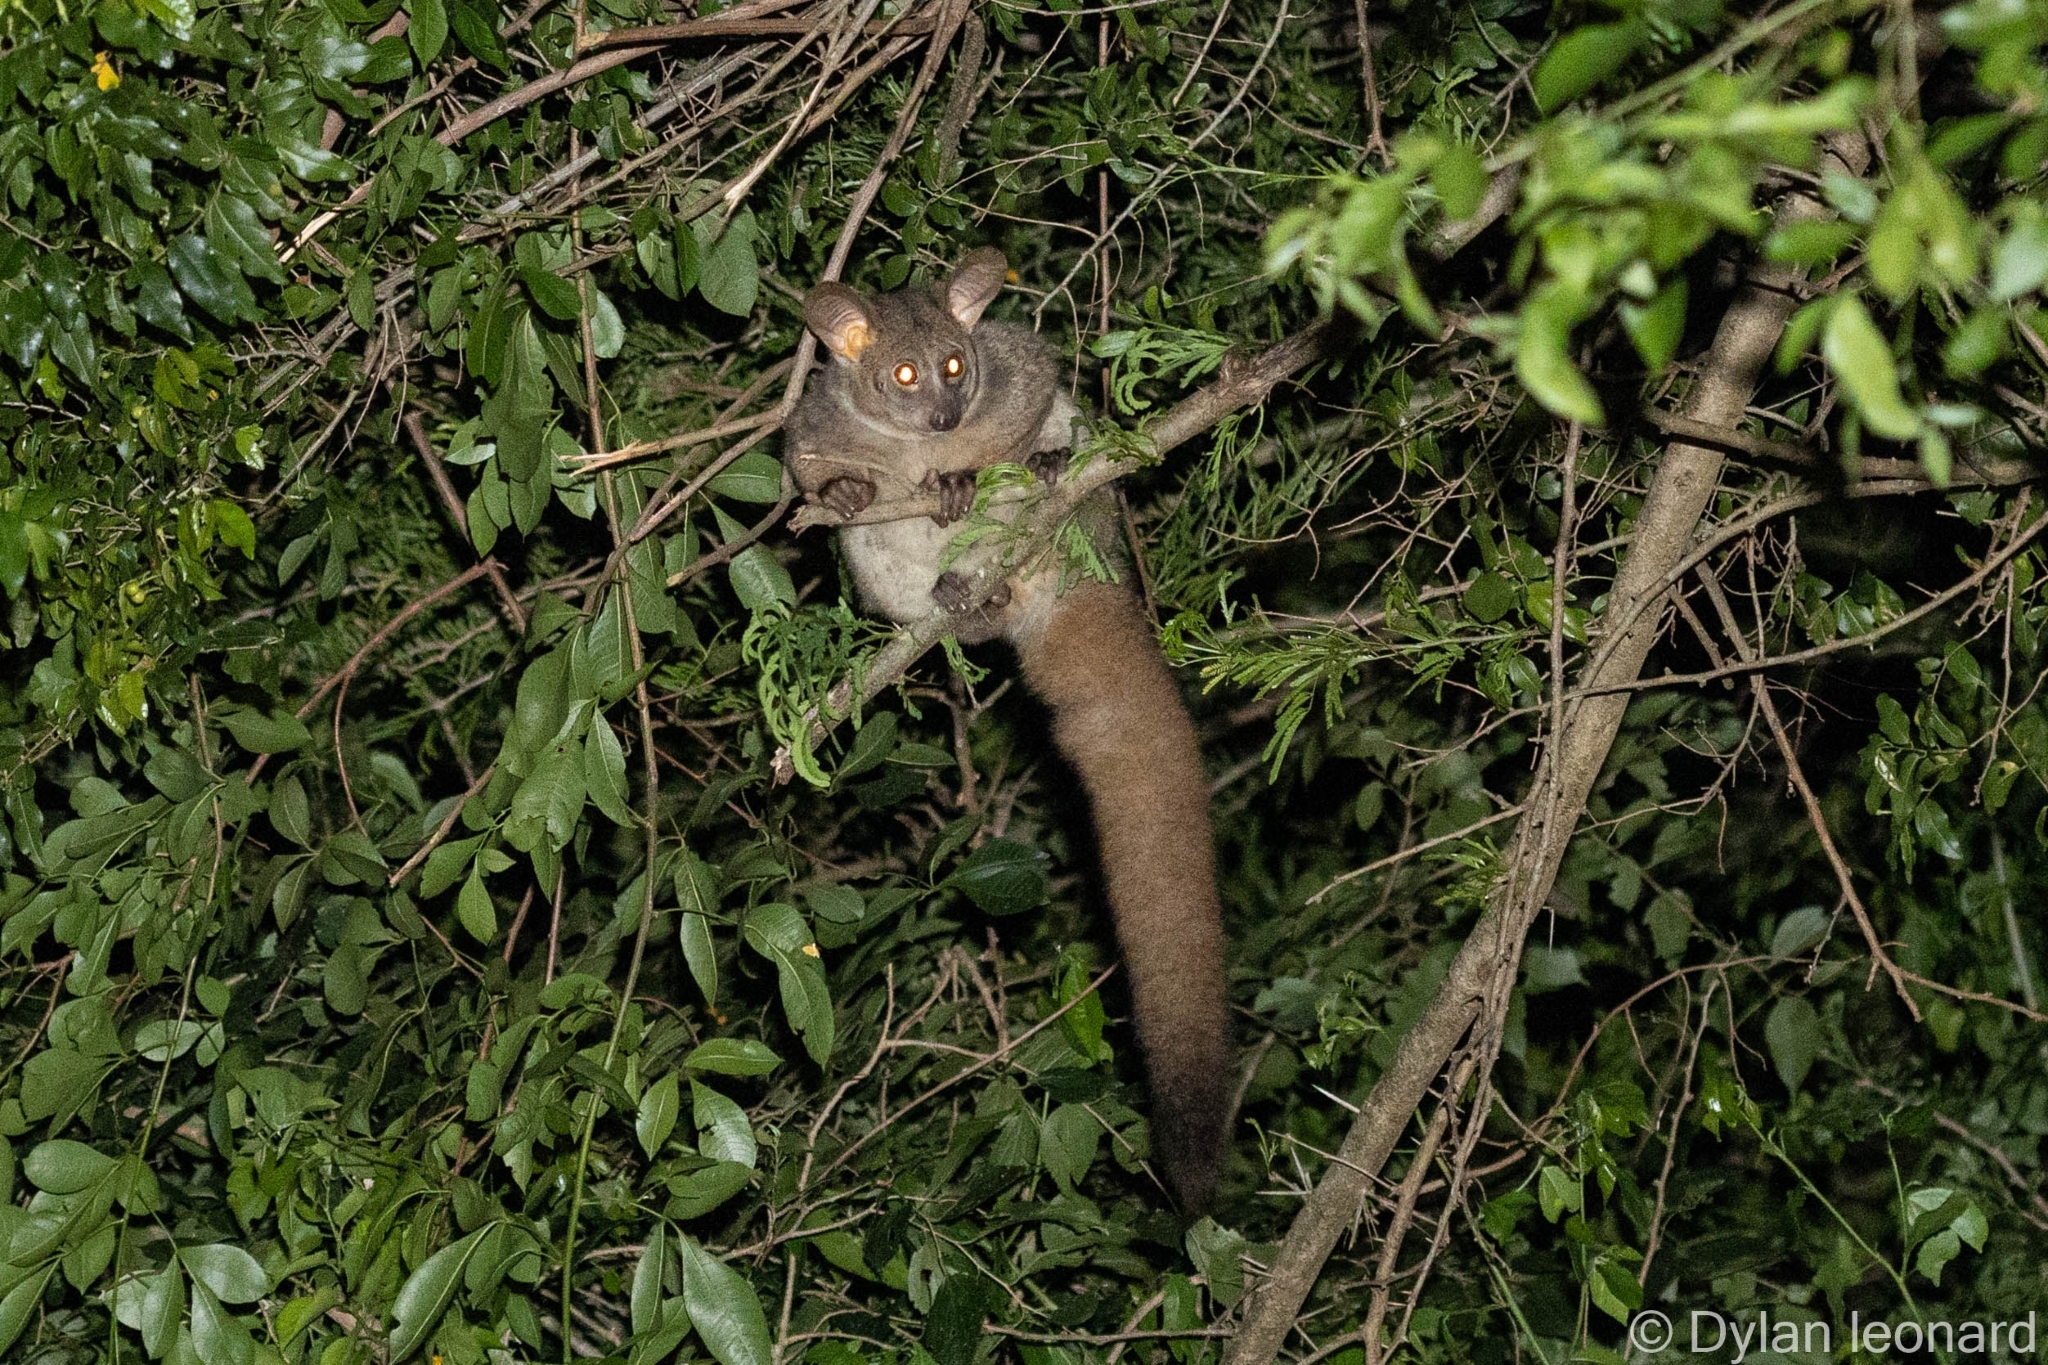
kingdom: Animalia
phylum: Chordata
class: Mammalia
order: Primates
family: Galagidae
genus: Otolemur
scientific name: Otolemur crassicaudatus
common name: Brown greater galago
